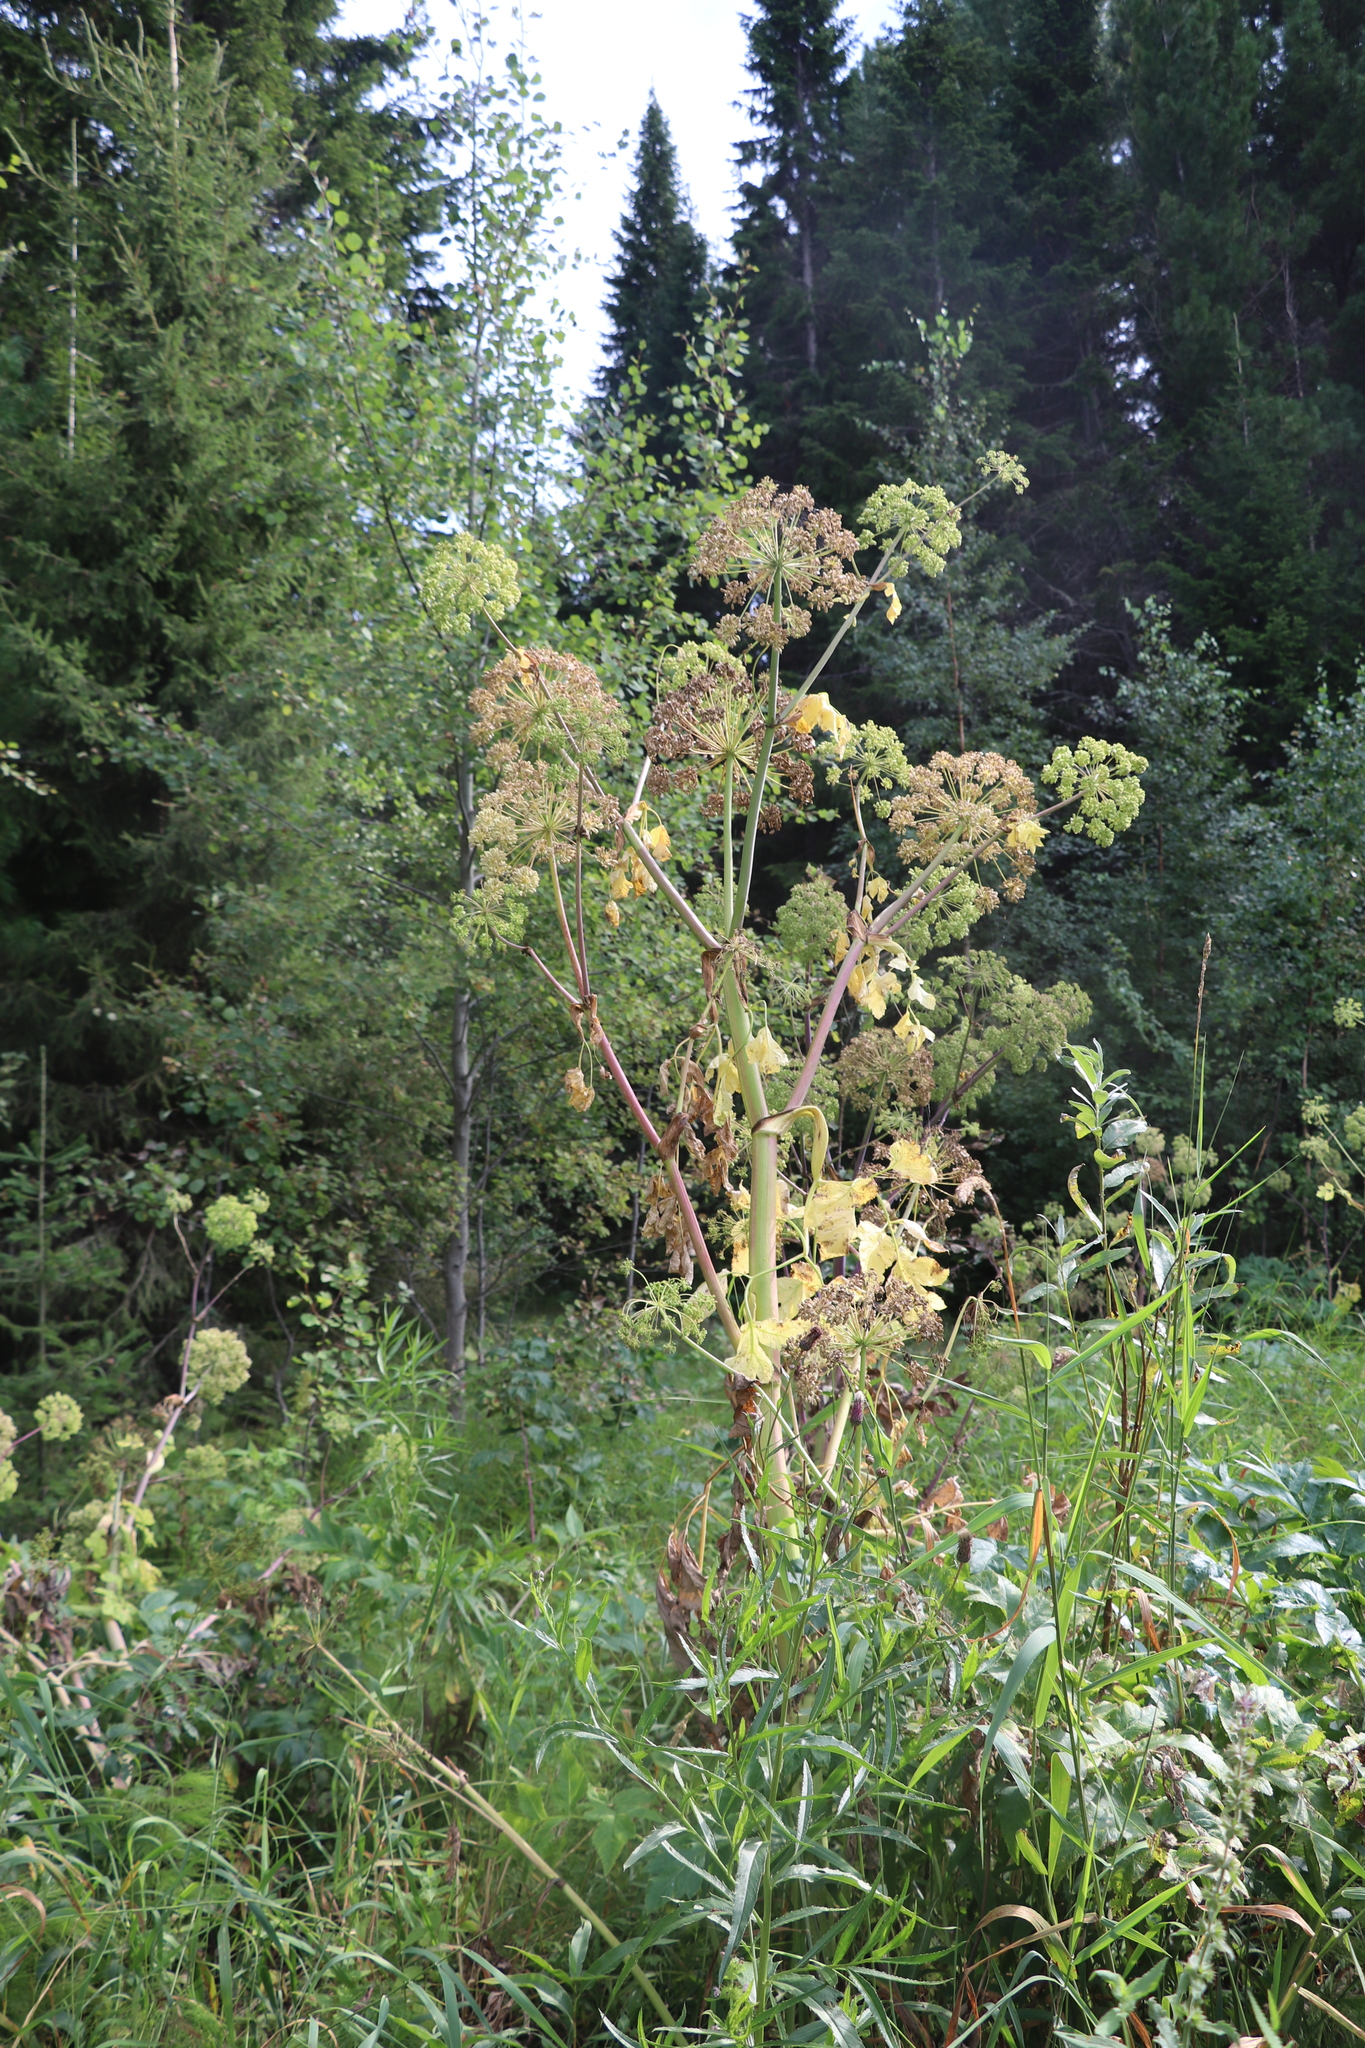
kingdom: Plantae
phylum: Tracheophyta
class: Magnoliopsida
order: Apiales
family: Apiaceae
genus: Angelica
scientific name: Angelica decurrens
